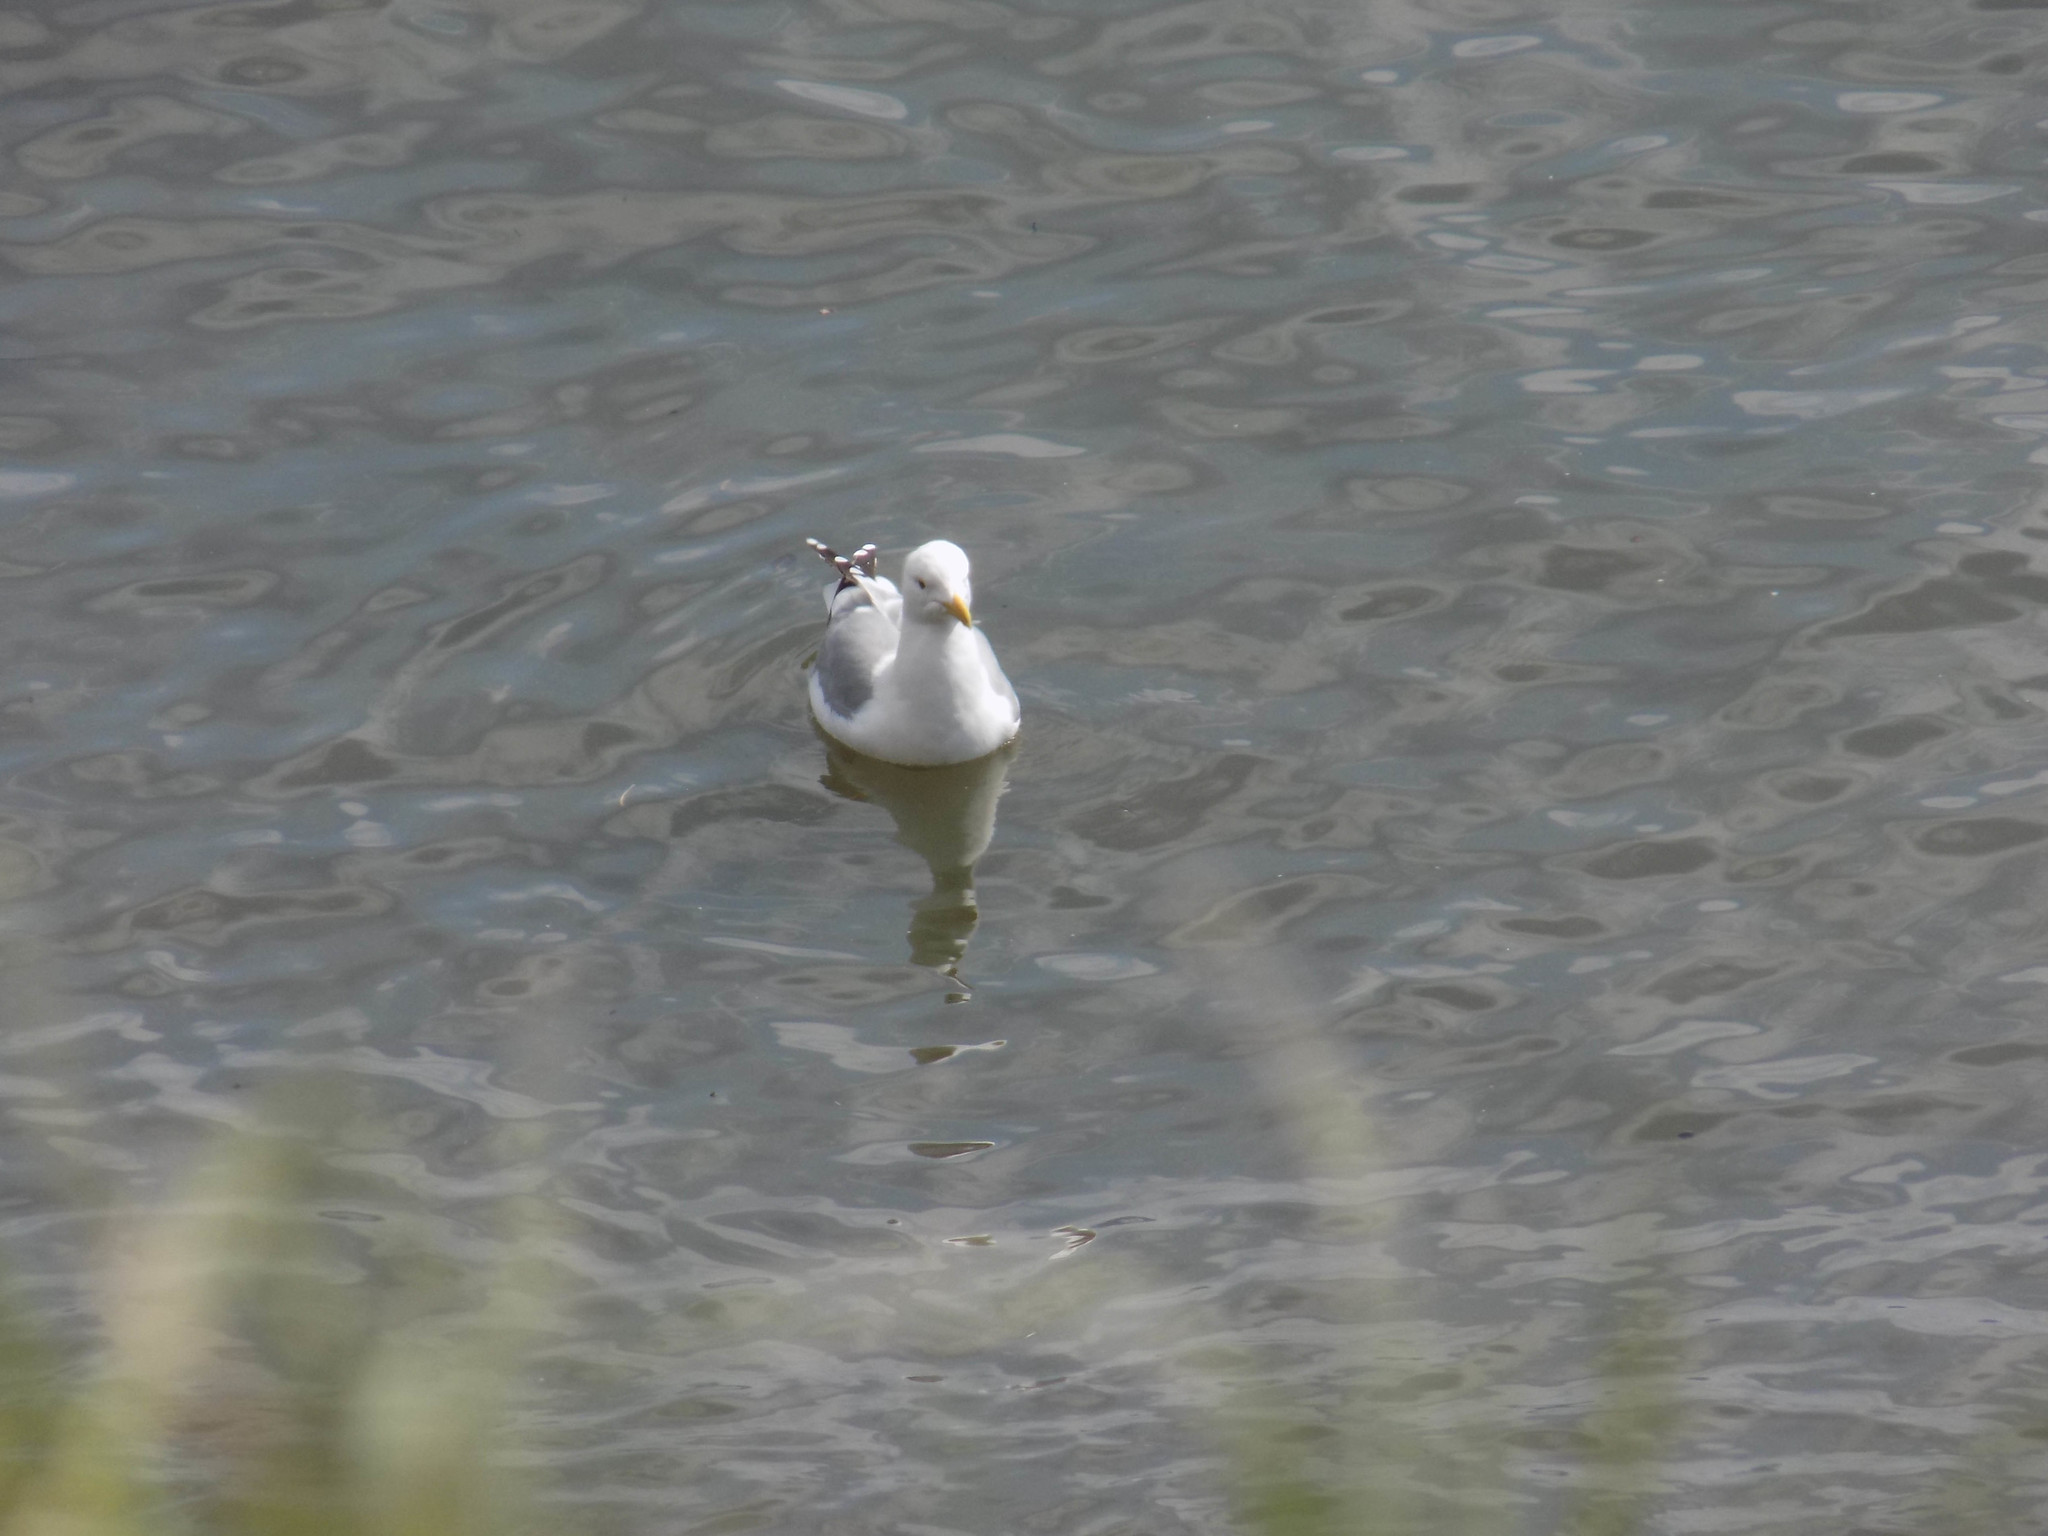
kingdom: Animalia
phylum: Chordata
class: Aves
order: Charadriiformes
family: Laridae
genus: Larus
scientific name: Larus vegae
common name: Vega gull
